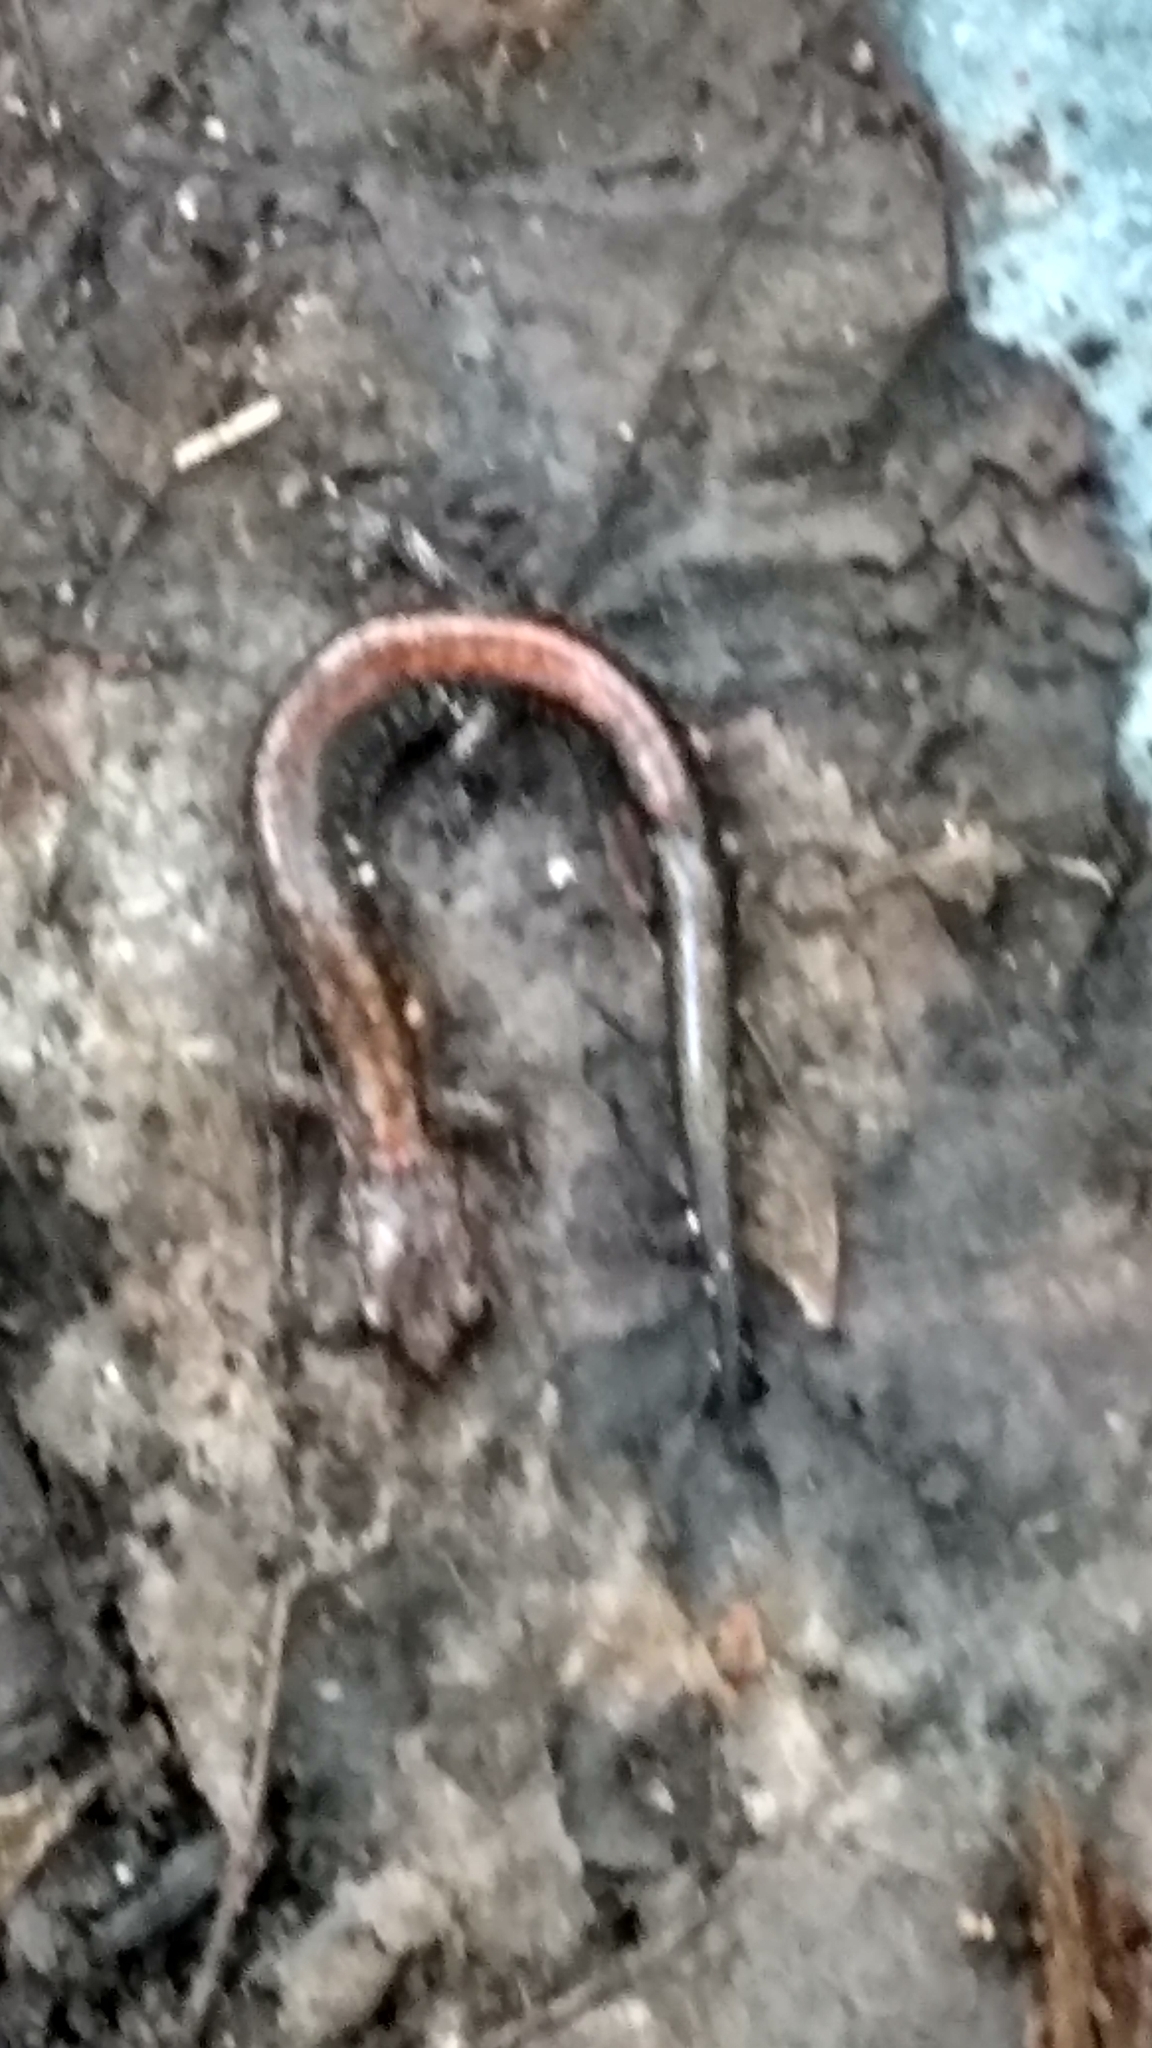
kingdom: Animalia
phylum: Chordata
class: Amphibia
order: Caudata
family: Plethodontidae
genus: Plethodon
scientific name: Plethodon cinereus
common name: Redback salamander
